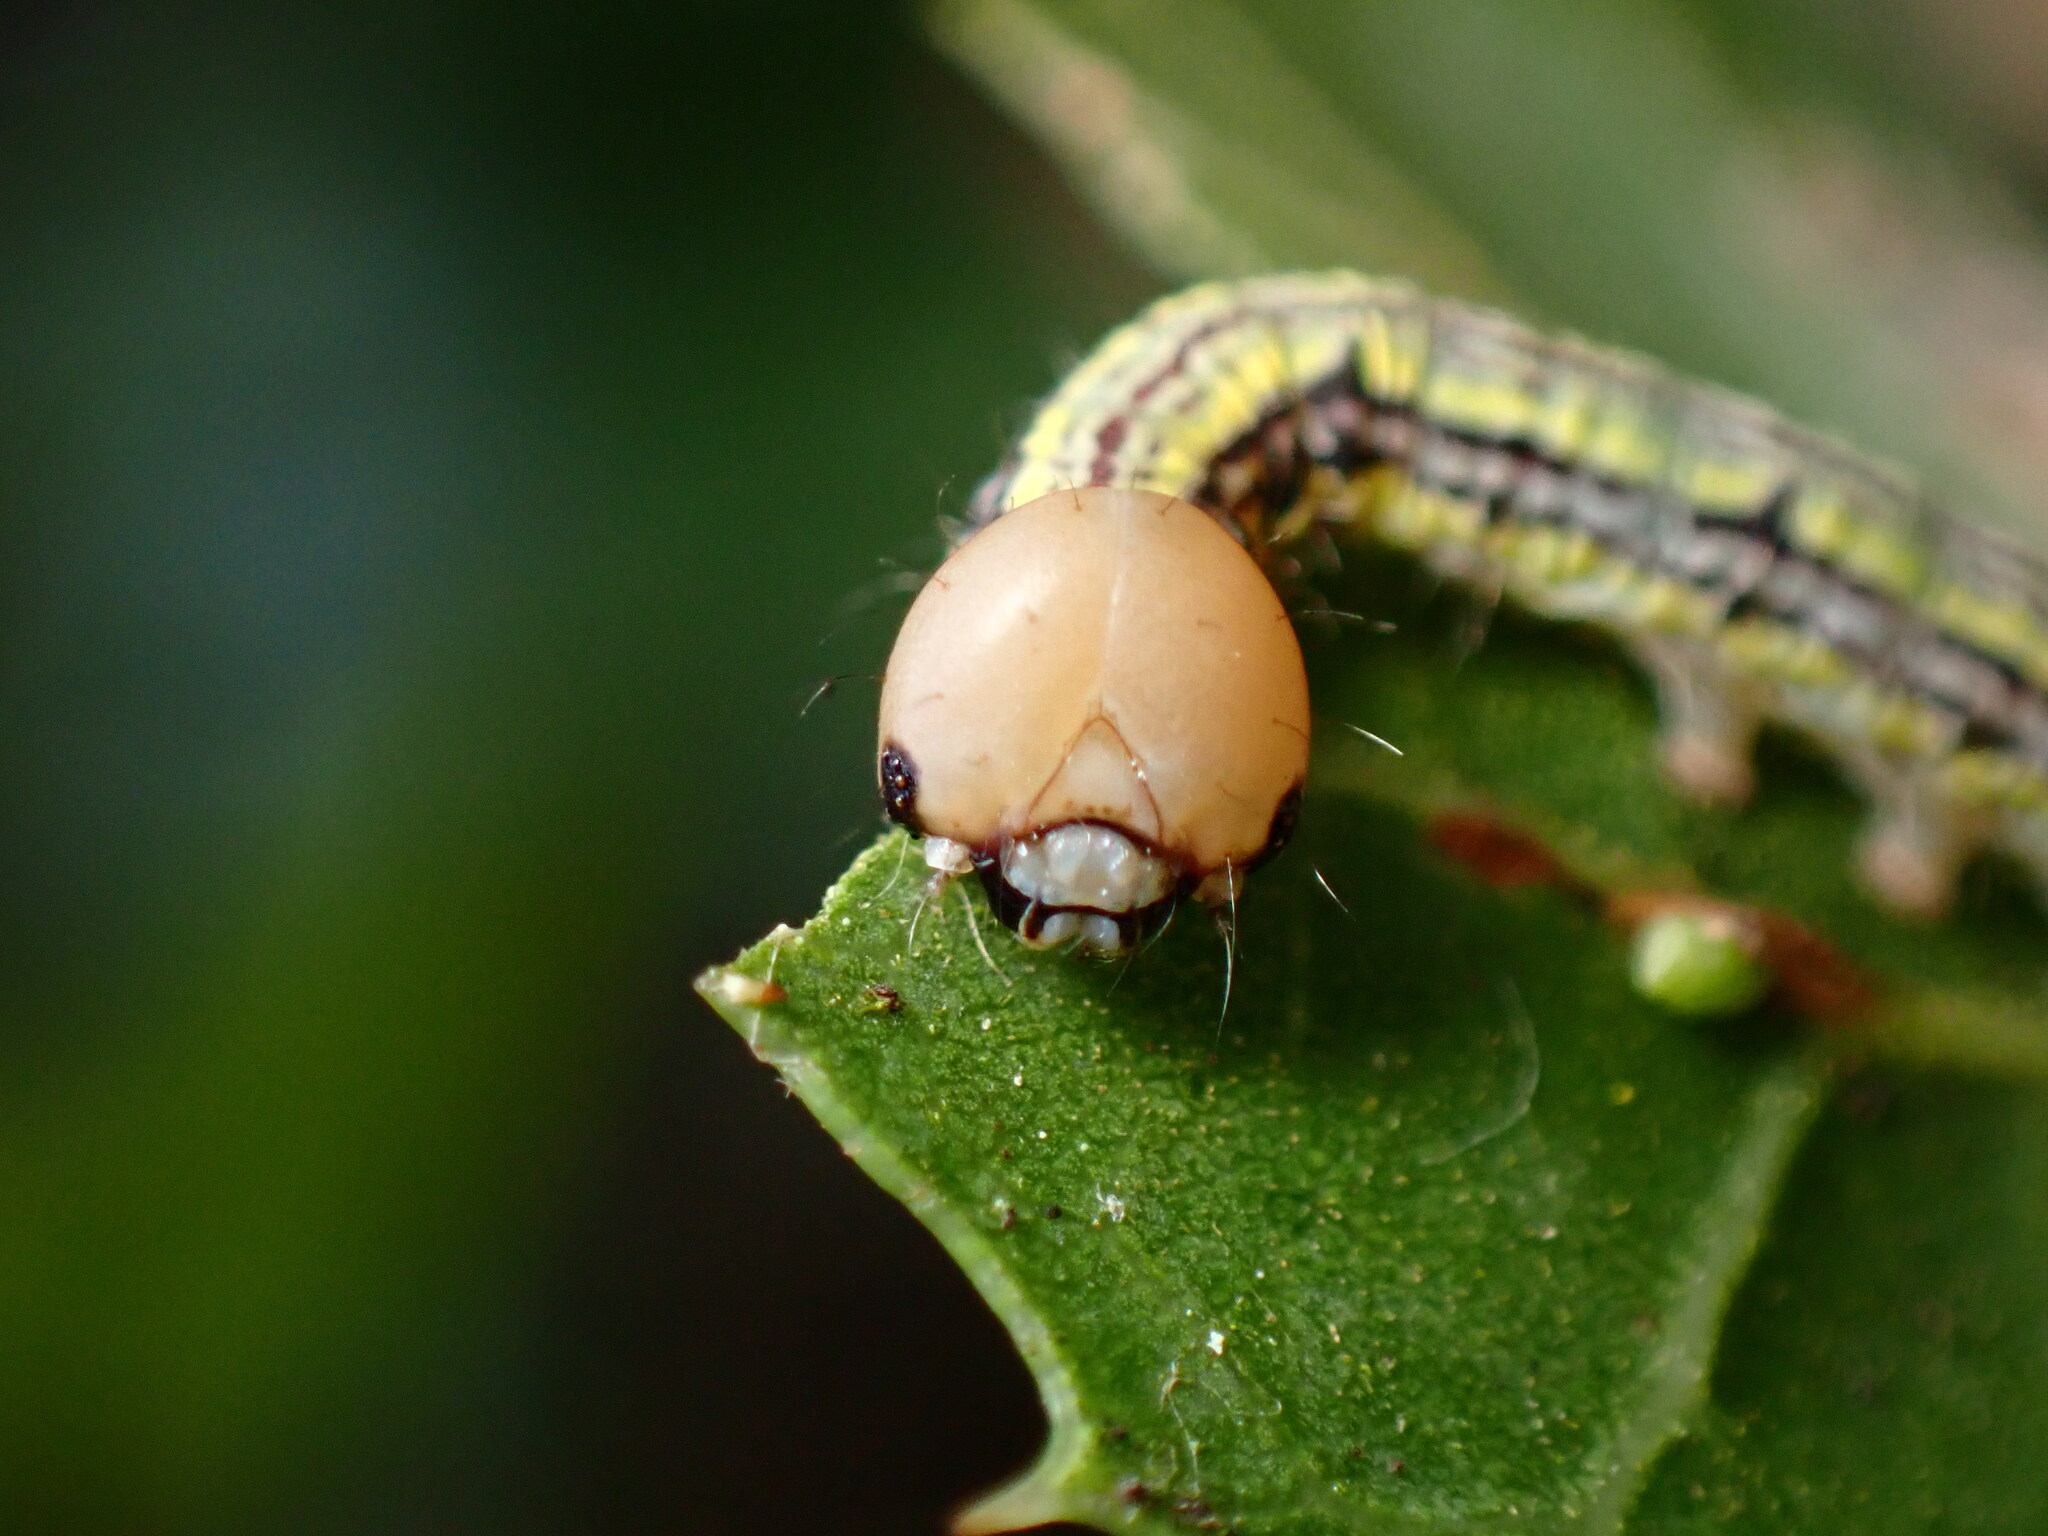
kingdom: Animalia
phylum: Arthropoda
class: Insecta
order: Lepidoptera
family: Notodontidae
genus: Phryganidia
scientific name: Phryganidia californica
